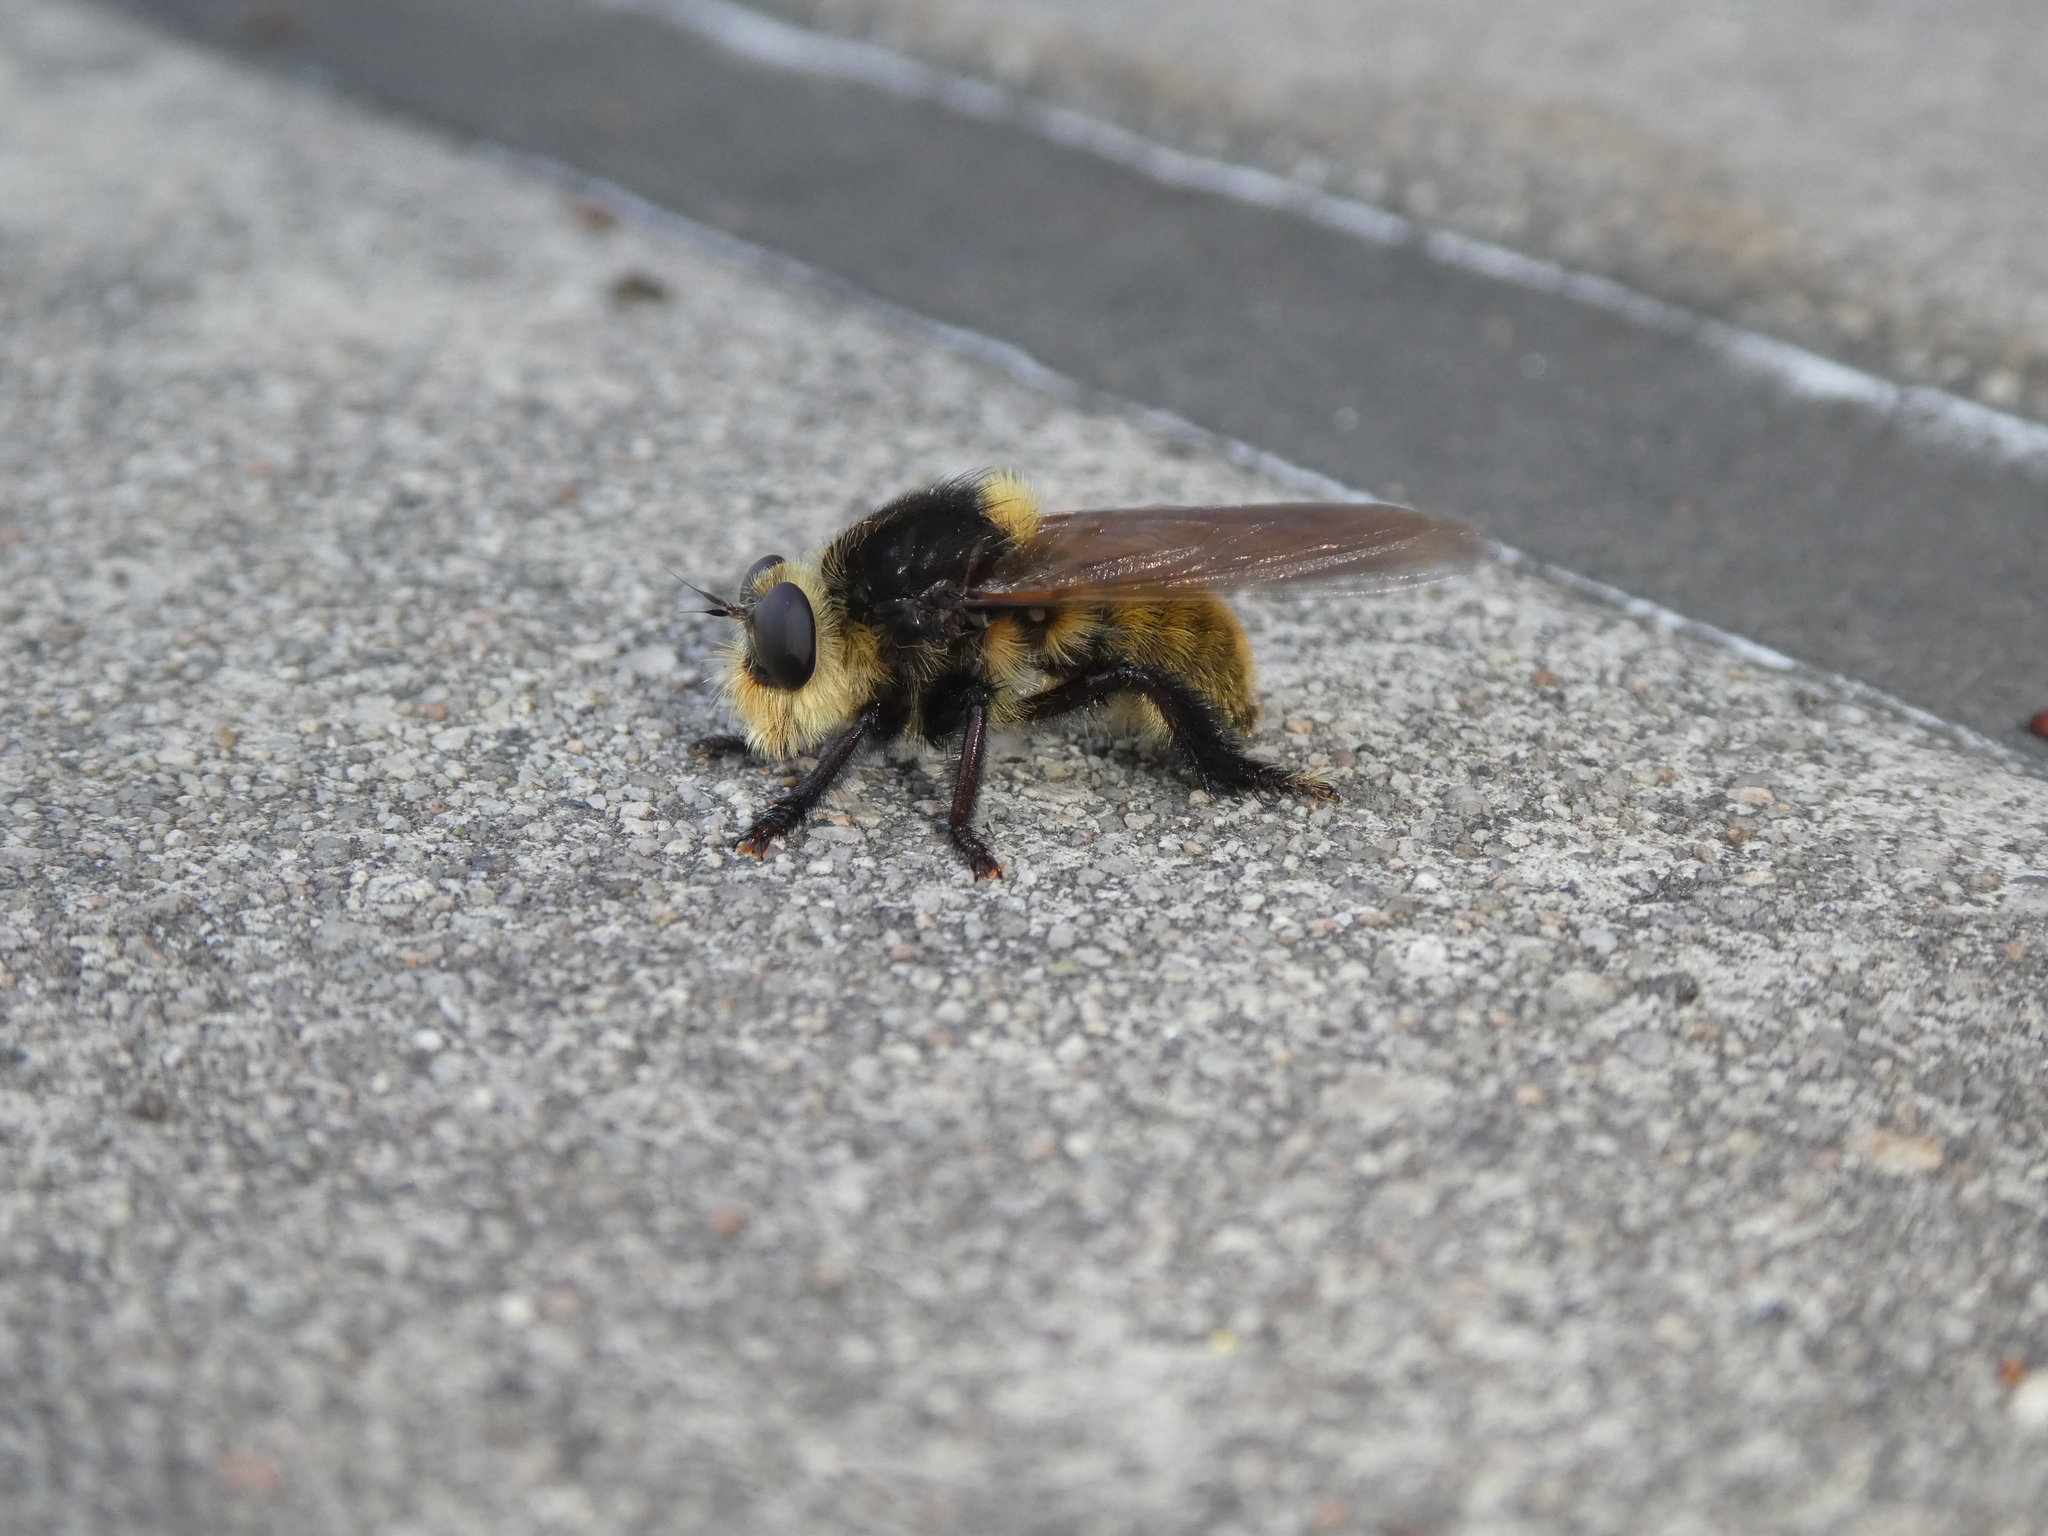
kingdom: Animalia
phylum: Arthropoda
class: Insecta
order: Diptera
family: Asilidae
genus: Mallophora
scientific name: Mallophora fautrix
